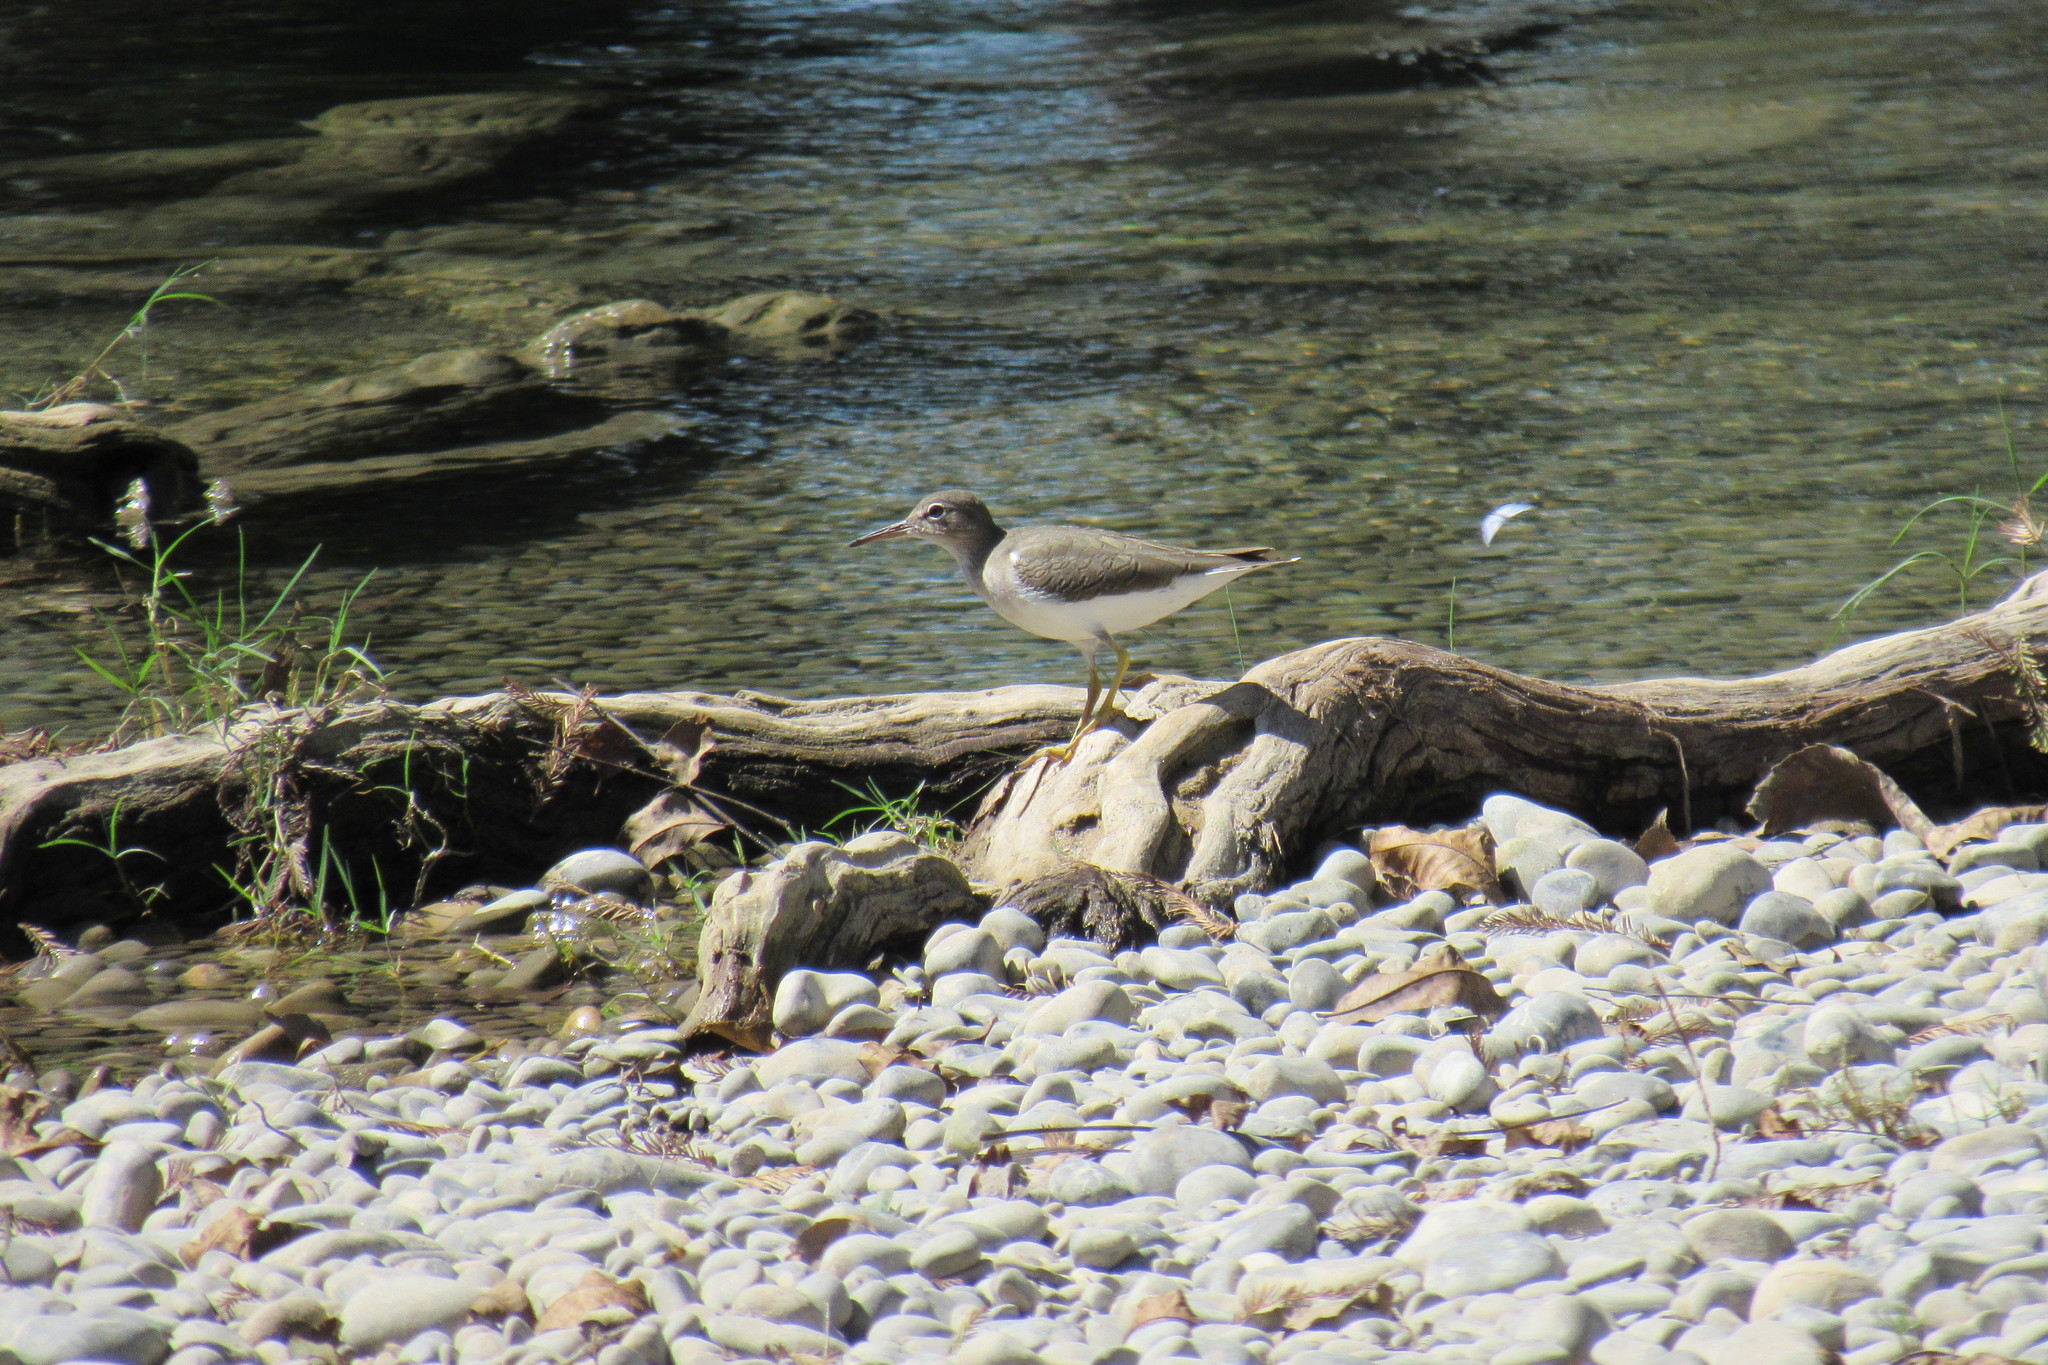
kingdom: Animalia
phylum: Chordata
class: Aves
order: Charadriiformes
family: Scolopacidae
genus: Actitis
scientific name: Actitis macularius
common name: Spotted sandpiper
